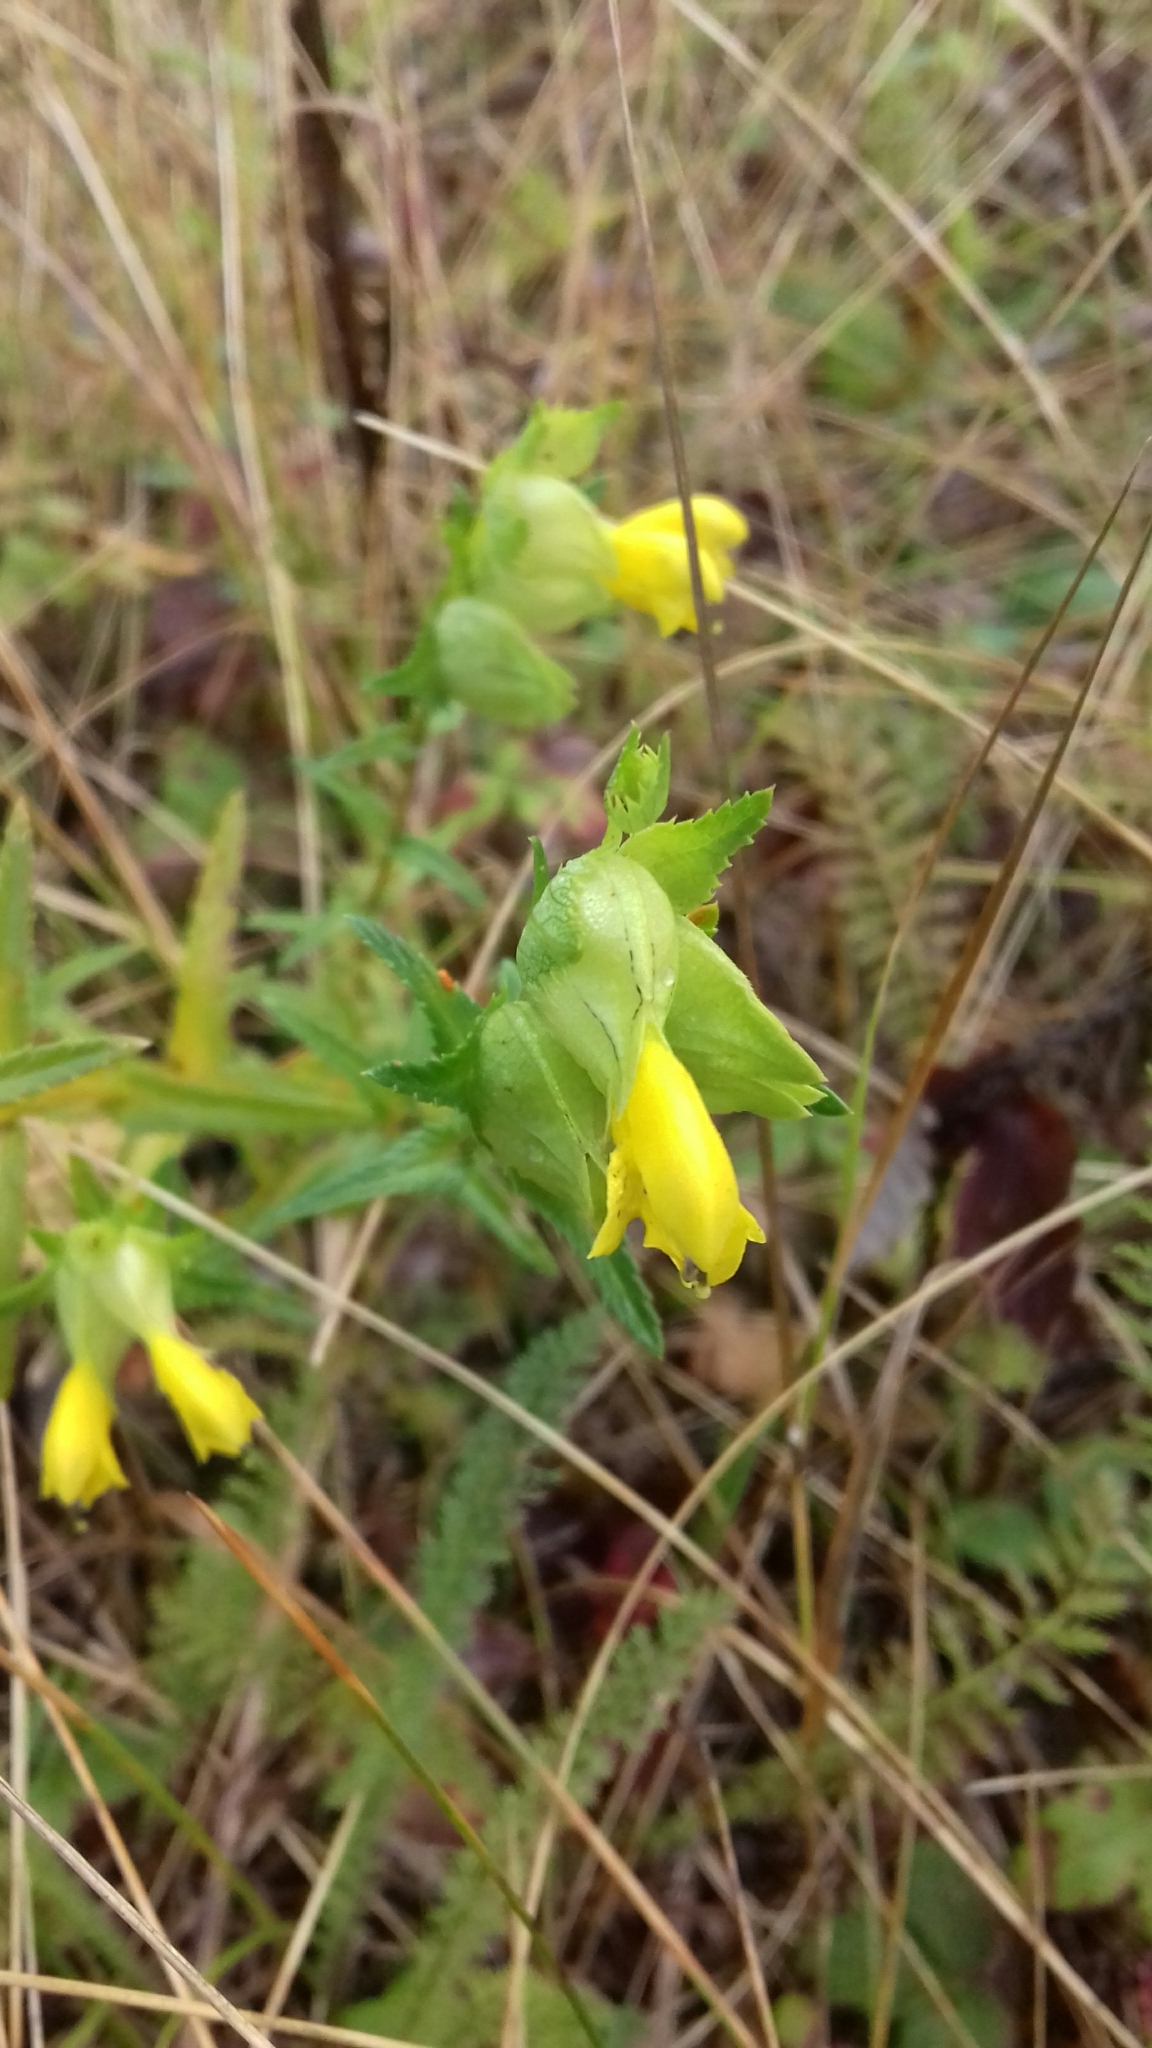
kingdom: Plantae
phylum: Tracheophyta
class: Magnoliopsida
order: Lamiales
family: Orobanchaceae
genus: Rhinanthus
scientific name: Rhinanthus minor
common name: Yellow-rattle
